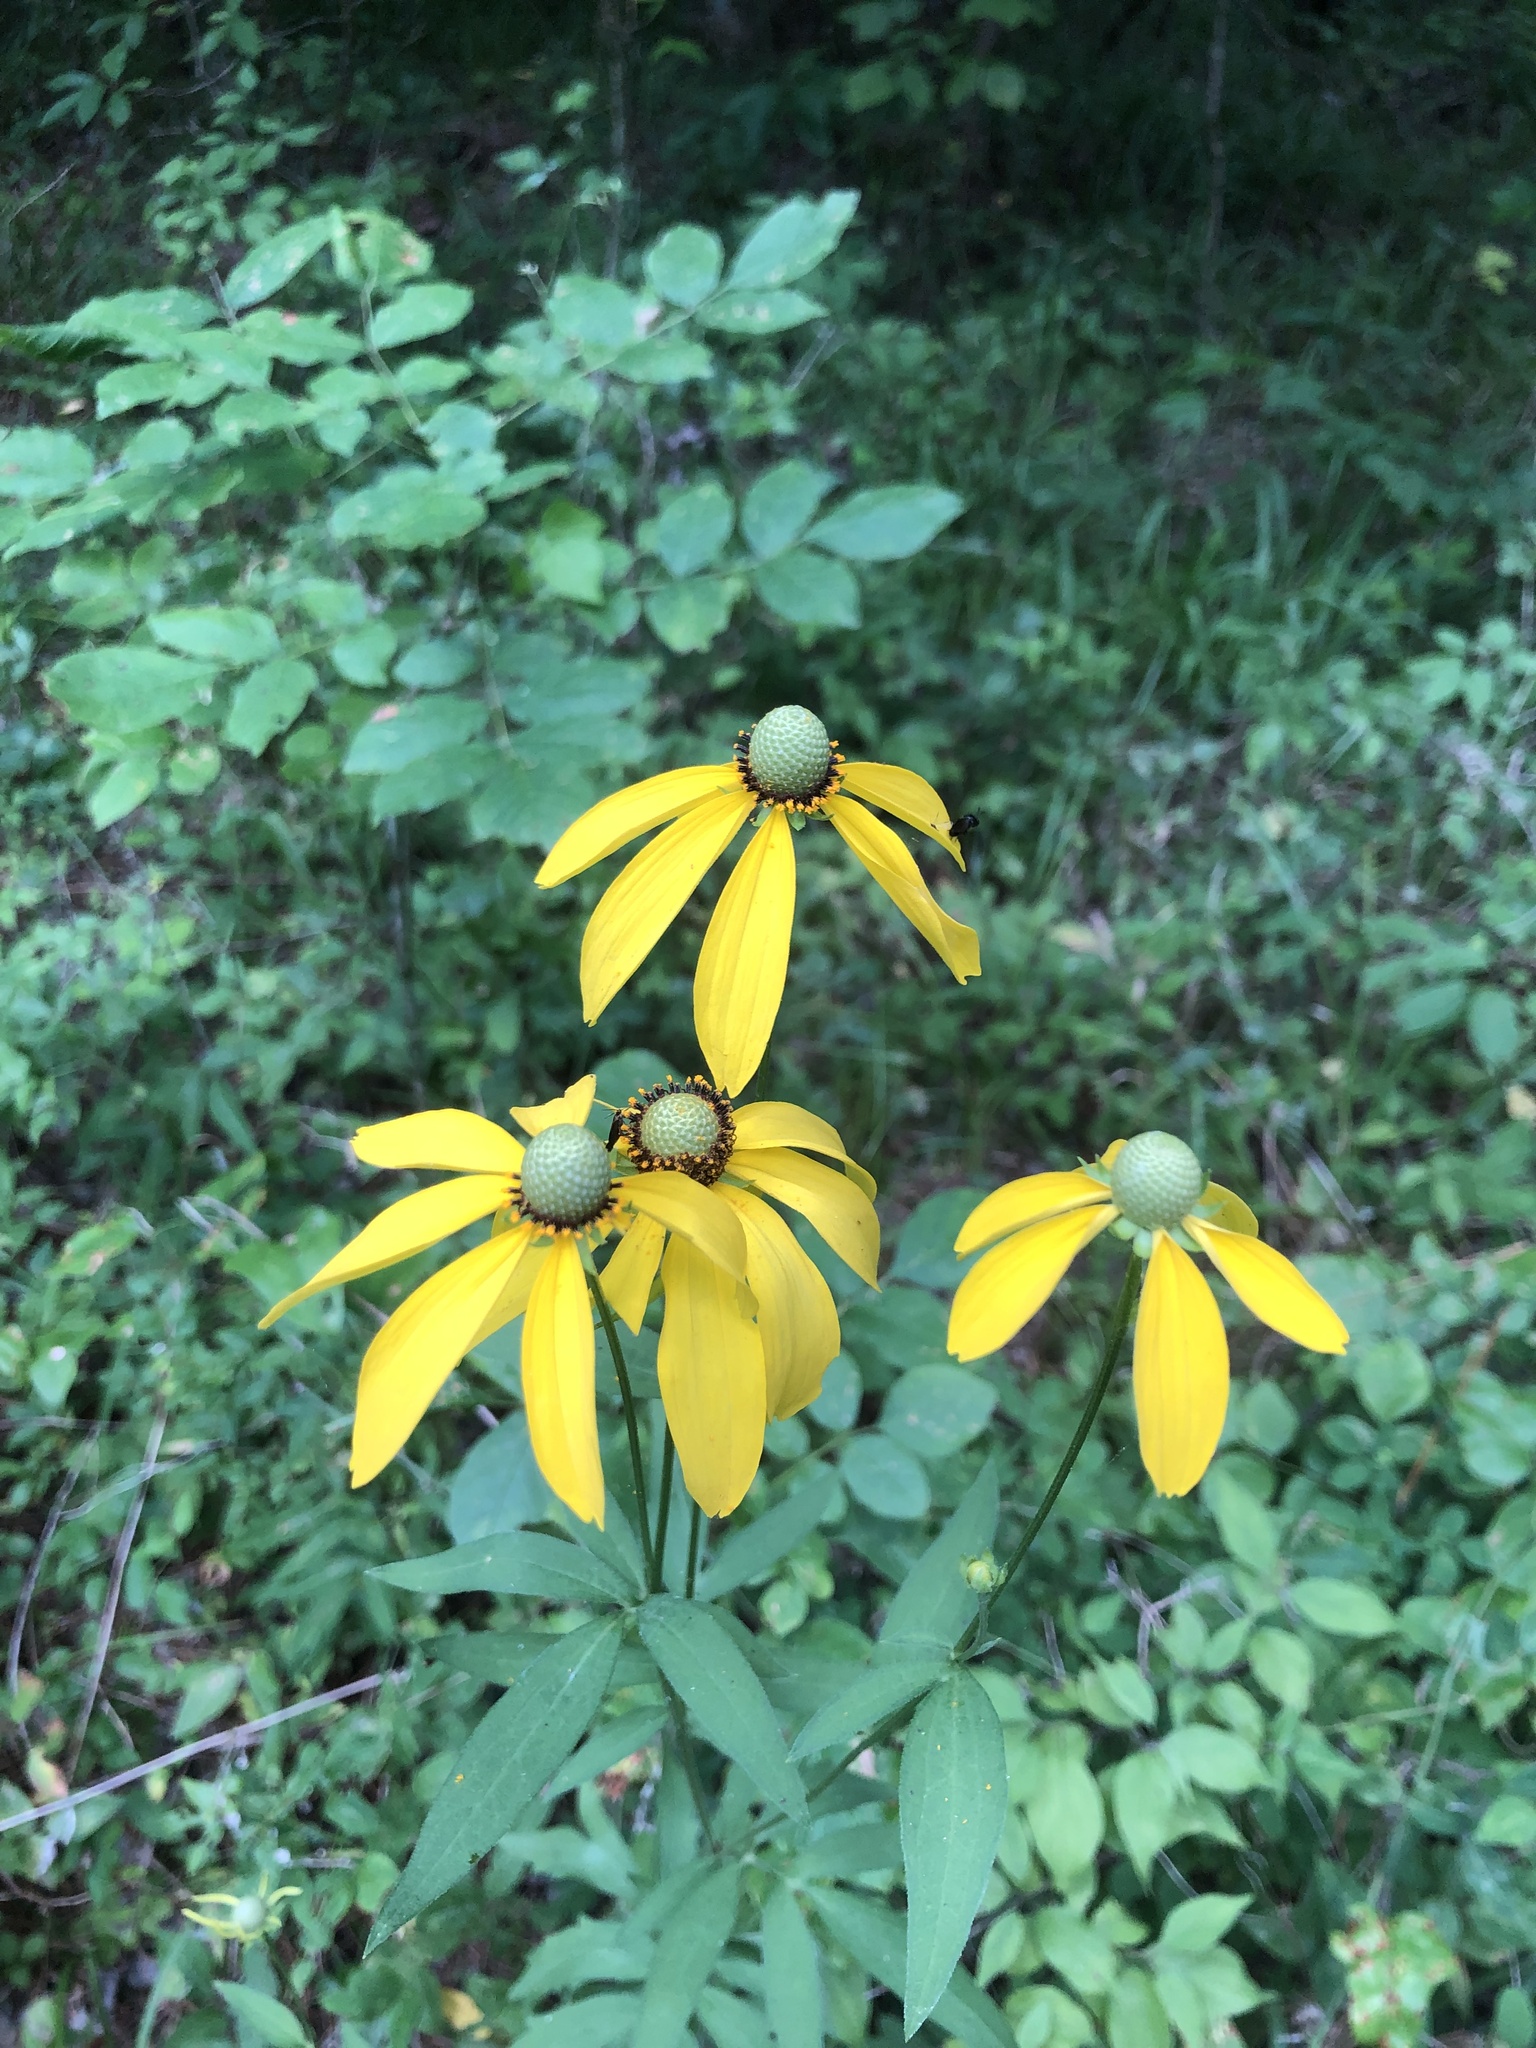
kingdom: Plantae
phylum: Tracheophyta
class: Magnoliopsida
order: Asterales
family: Asteraceae
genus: Ratibida
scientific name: Ratibida pinnata
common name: Drooping prairie-coneflower
